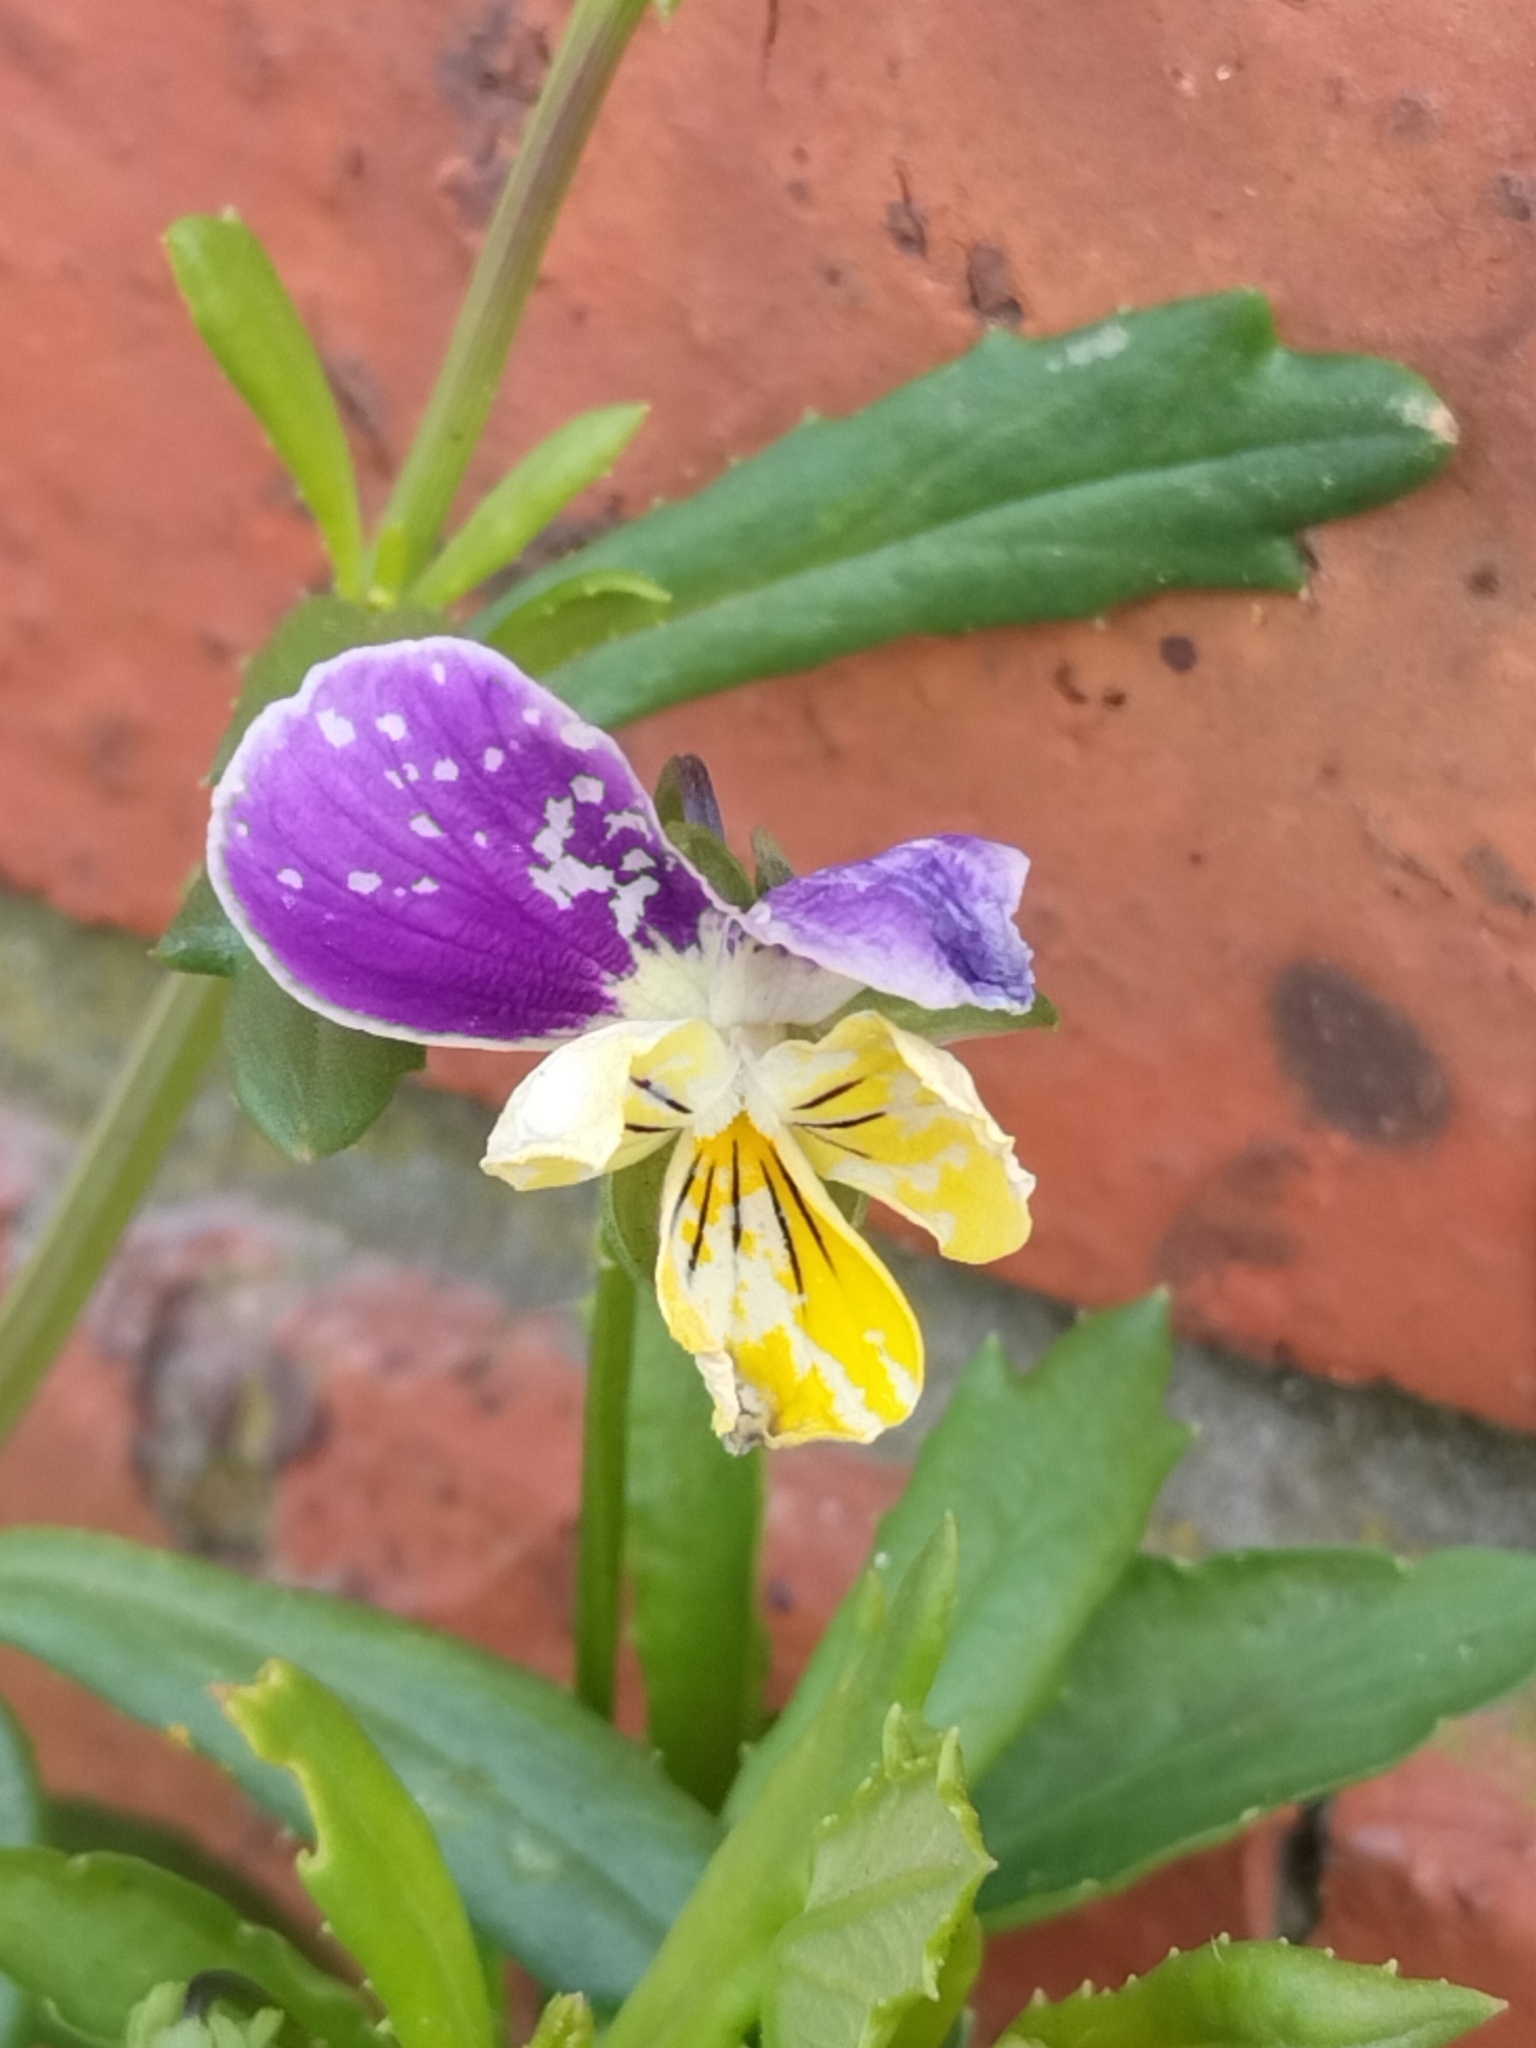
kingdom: Plantae
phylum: Tracheophyta
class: Magnoliopsida
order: Malpighiales
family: Violaceae
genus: Viola
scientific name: Viola williamsii
